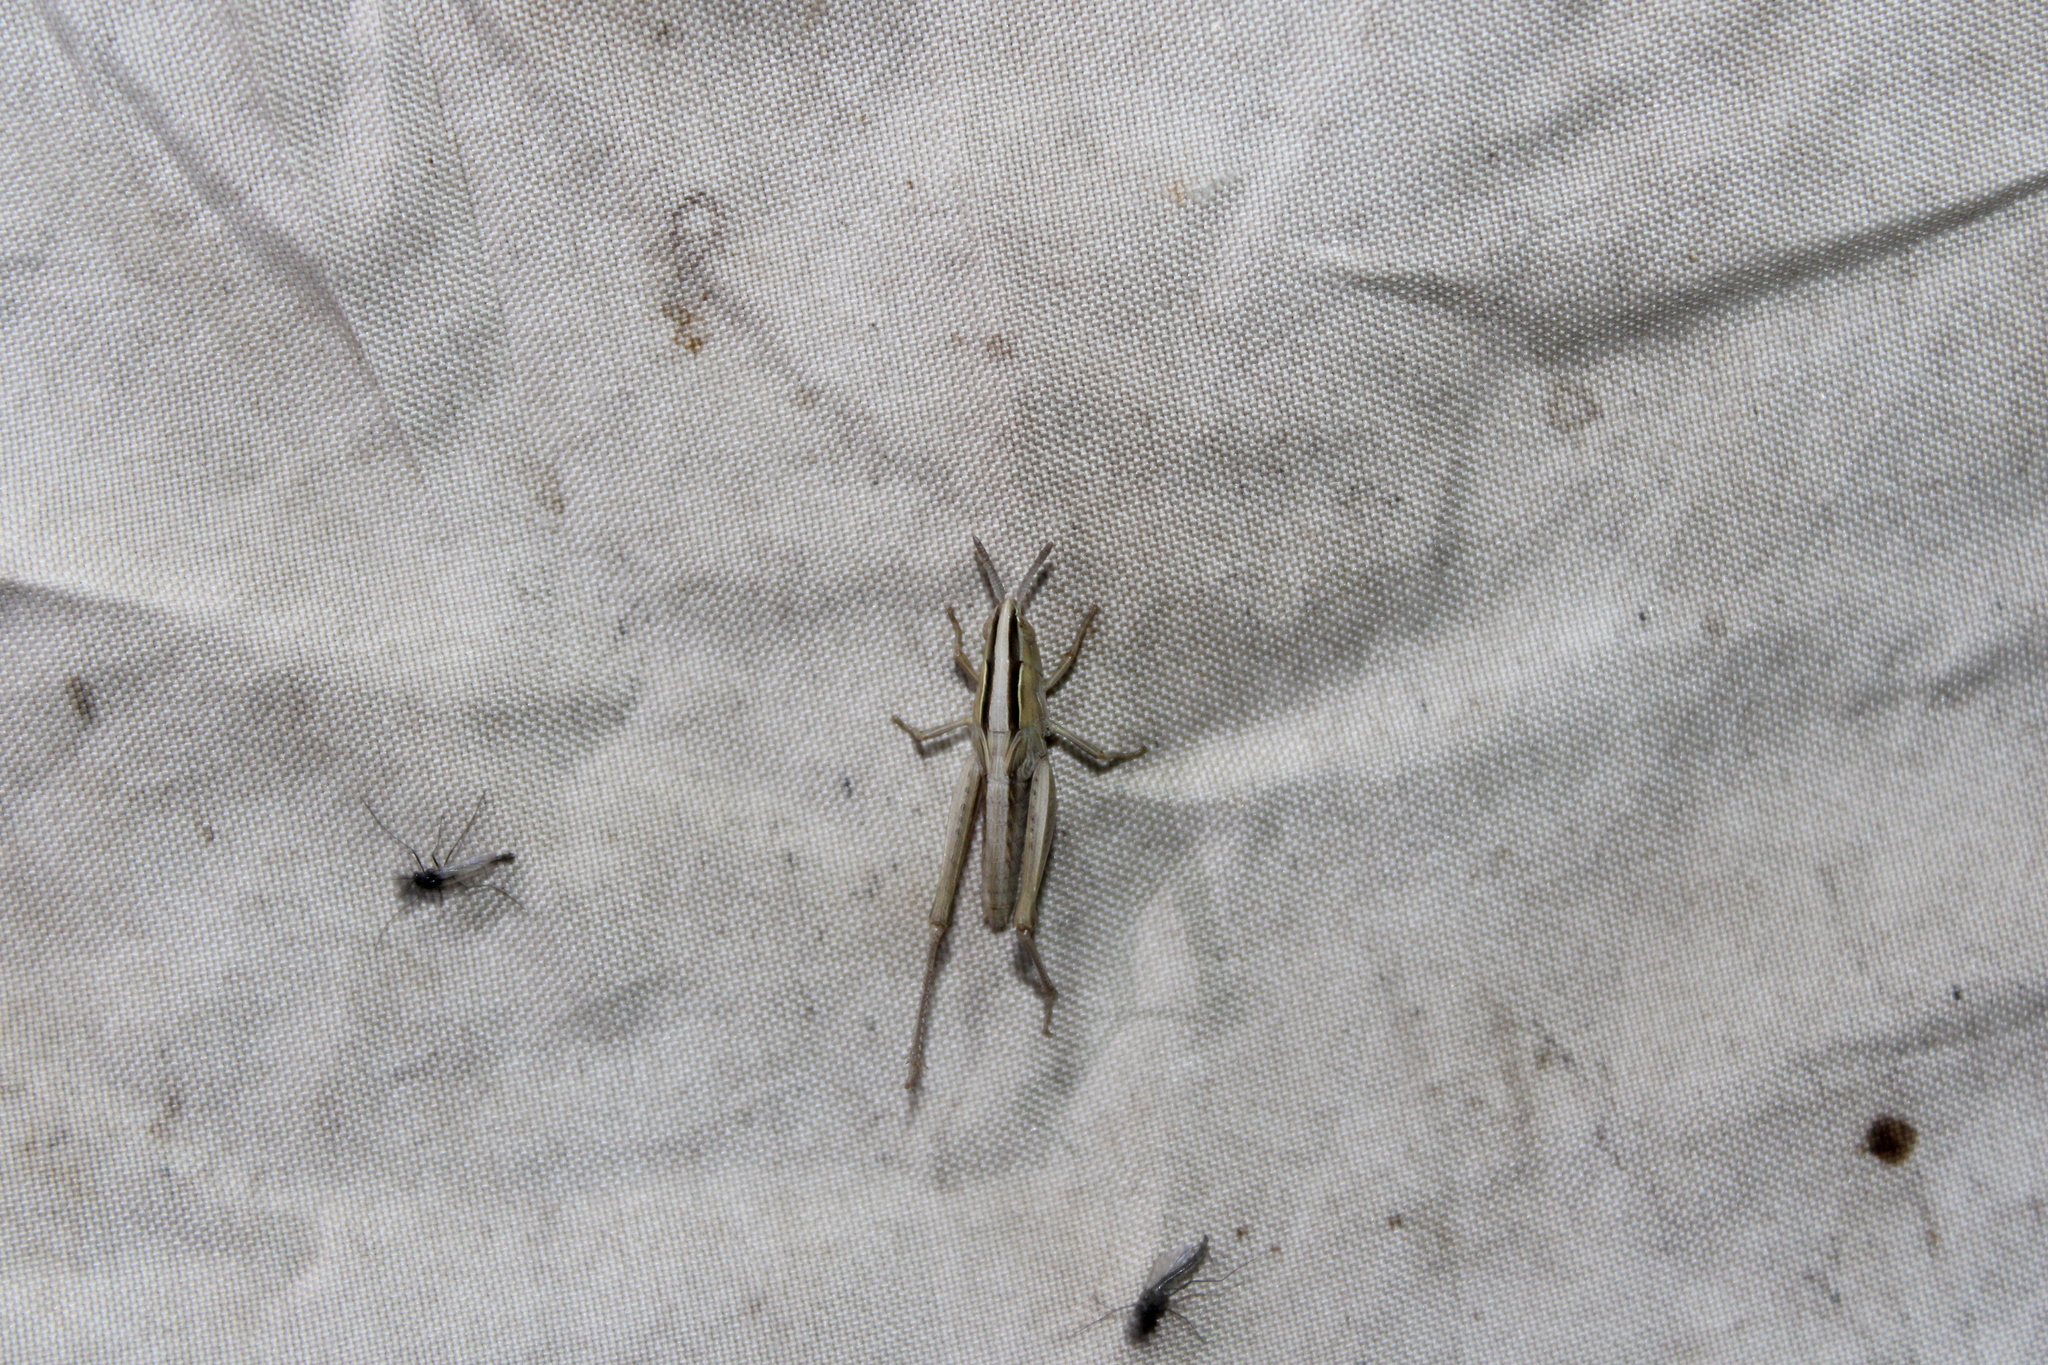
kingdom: Animalia
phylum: Arthropoda
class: Insecta
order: Orthoptera
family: Acrididae
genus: Eritettix
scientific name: Eritettix simplex
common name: Velvet-striped grasshopper
